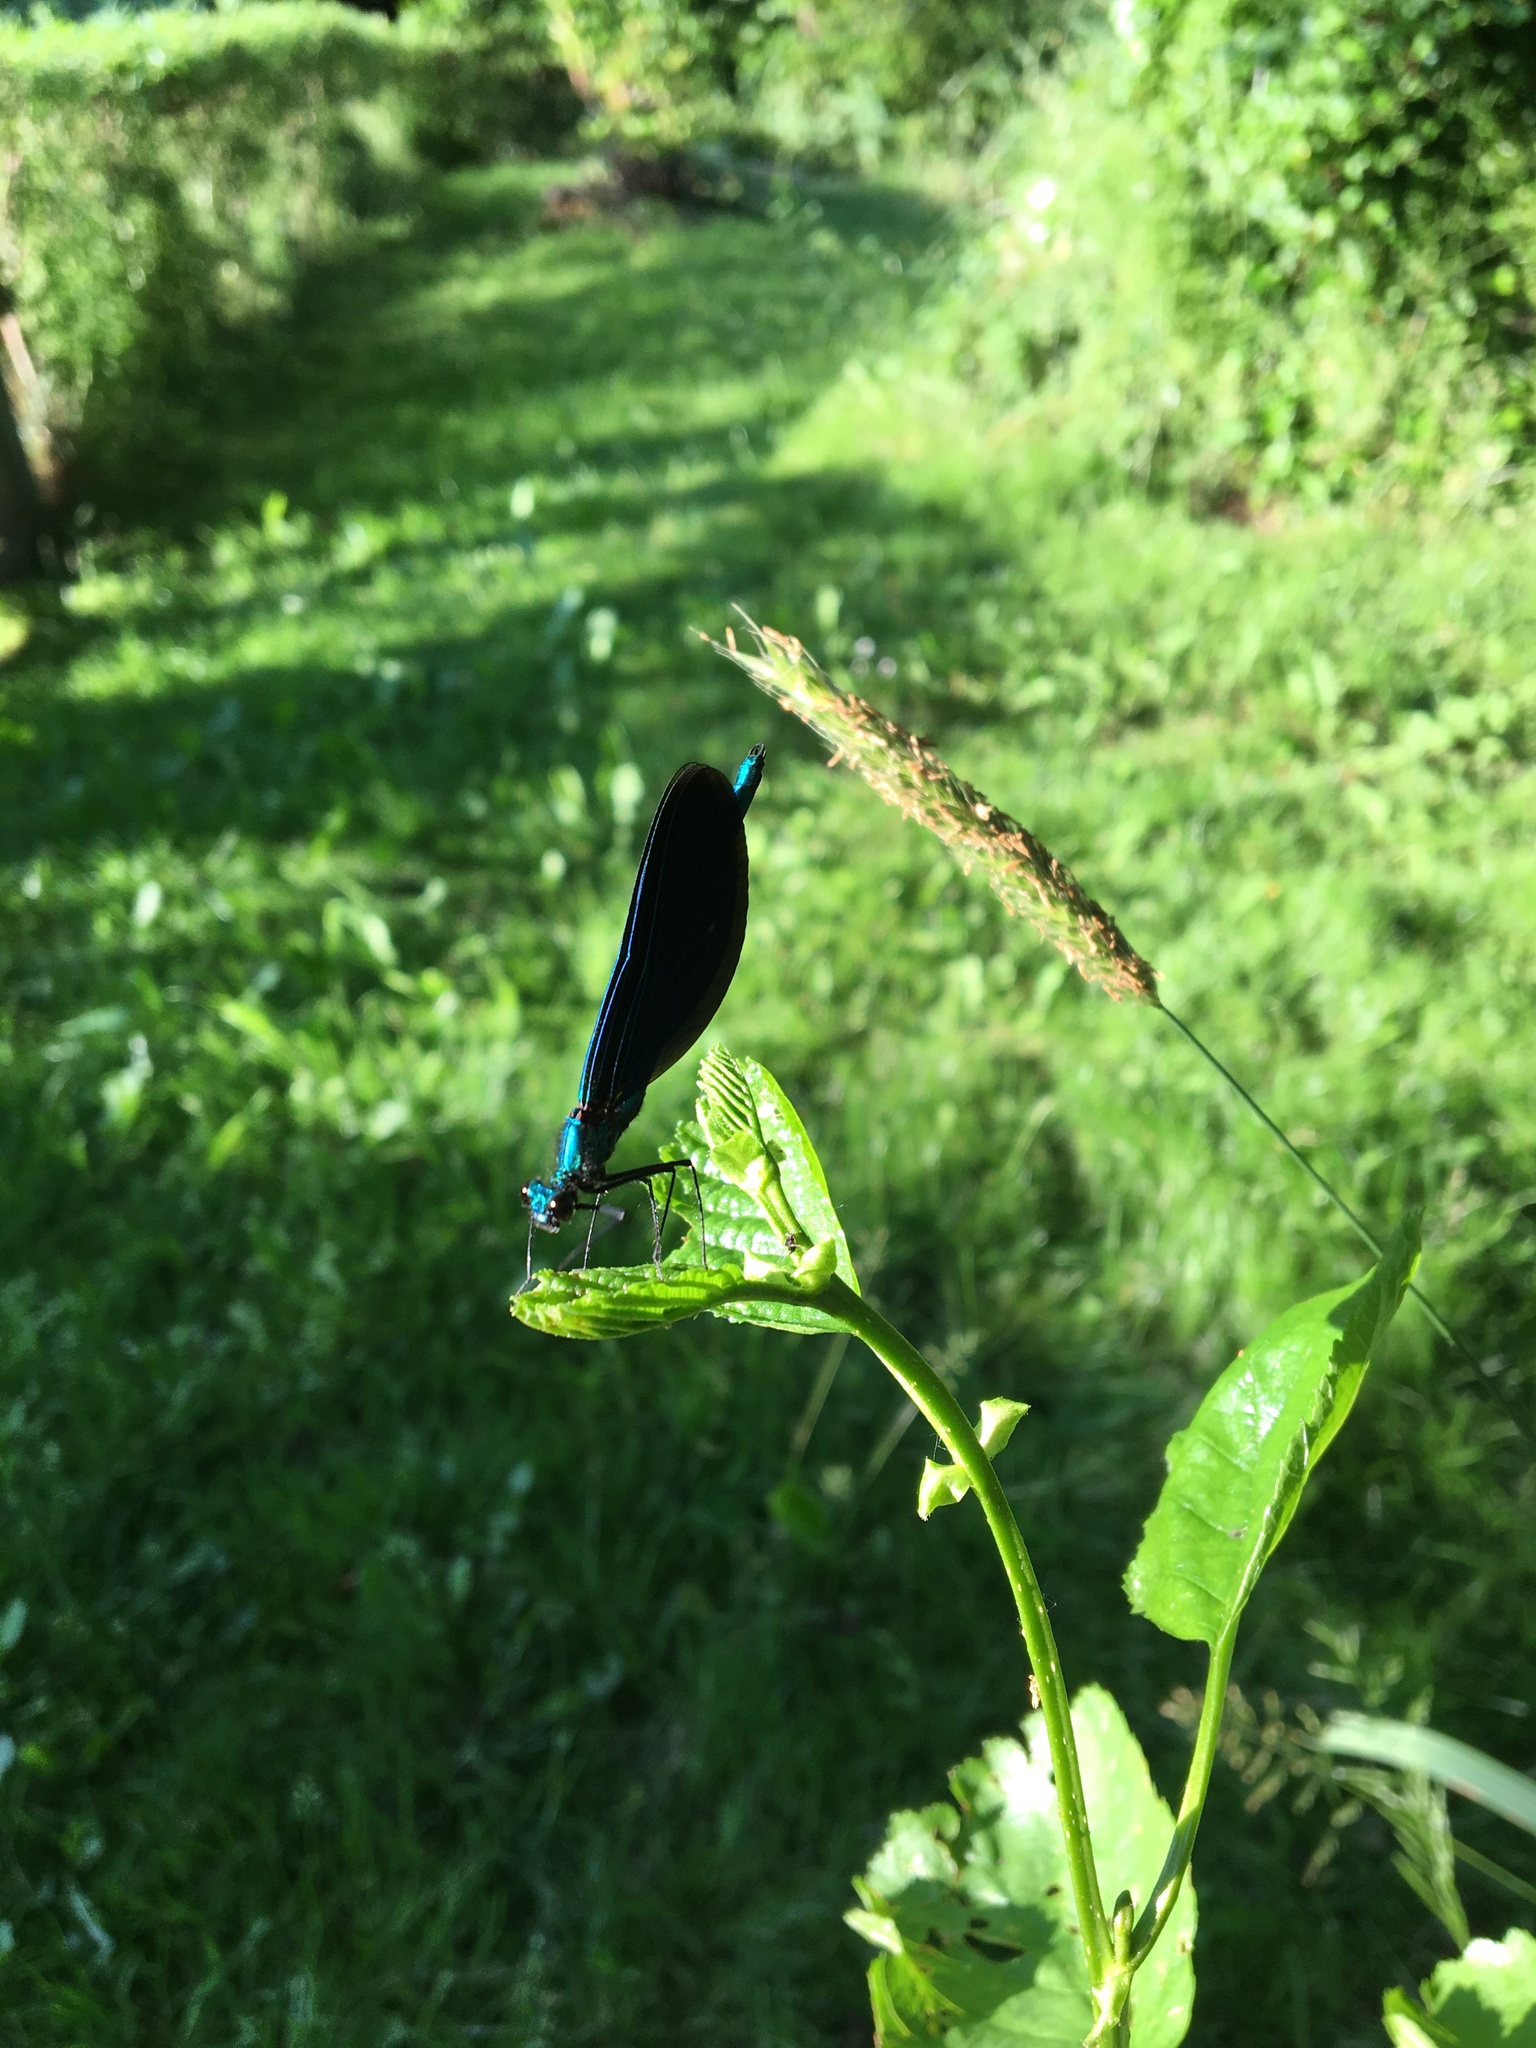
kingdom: Animalia
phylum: Arthropoda
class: Insecta
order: Odonata
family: Calopterygidae
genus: Calopteryx
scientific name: Calopteryx virgo
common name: Beautiful demoiselle
